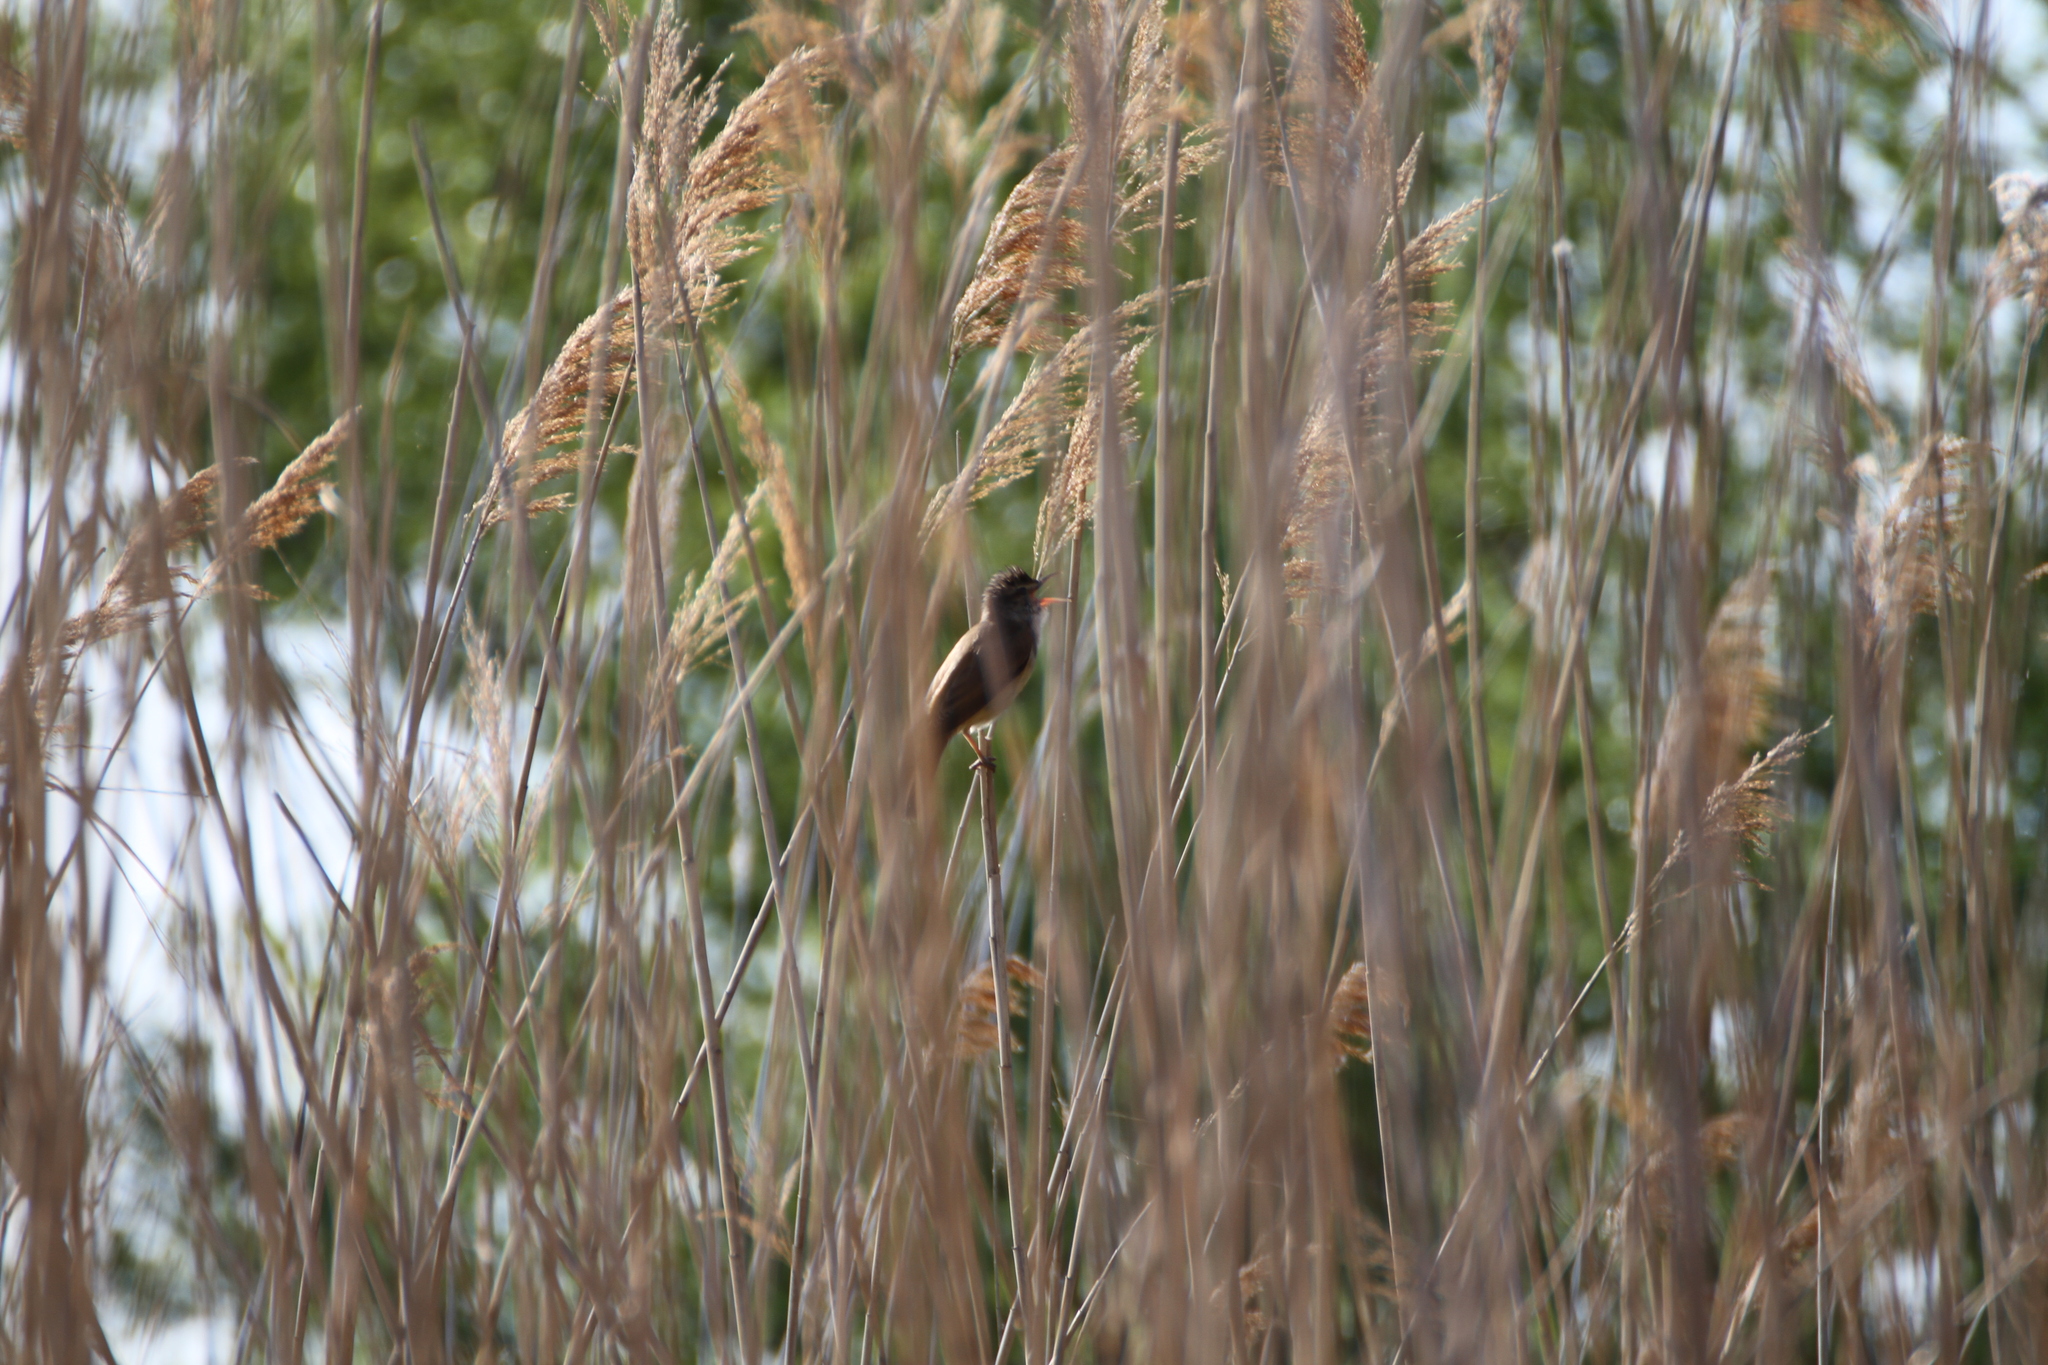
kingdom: Animalia
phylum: Chordata
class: Aves
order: Passeriformes
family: Acrocephalidae
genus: Acrocephalus
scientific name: Acrocephalus arundinaceus
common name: Great reed warbler
